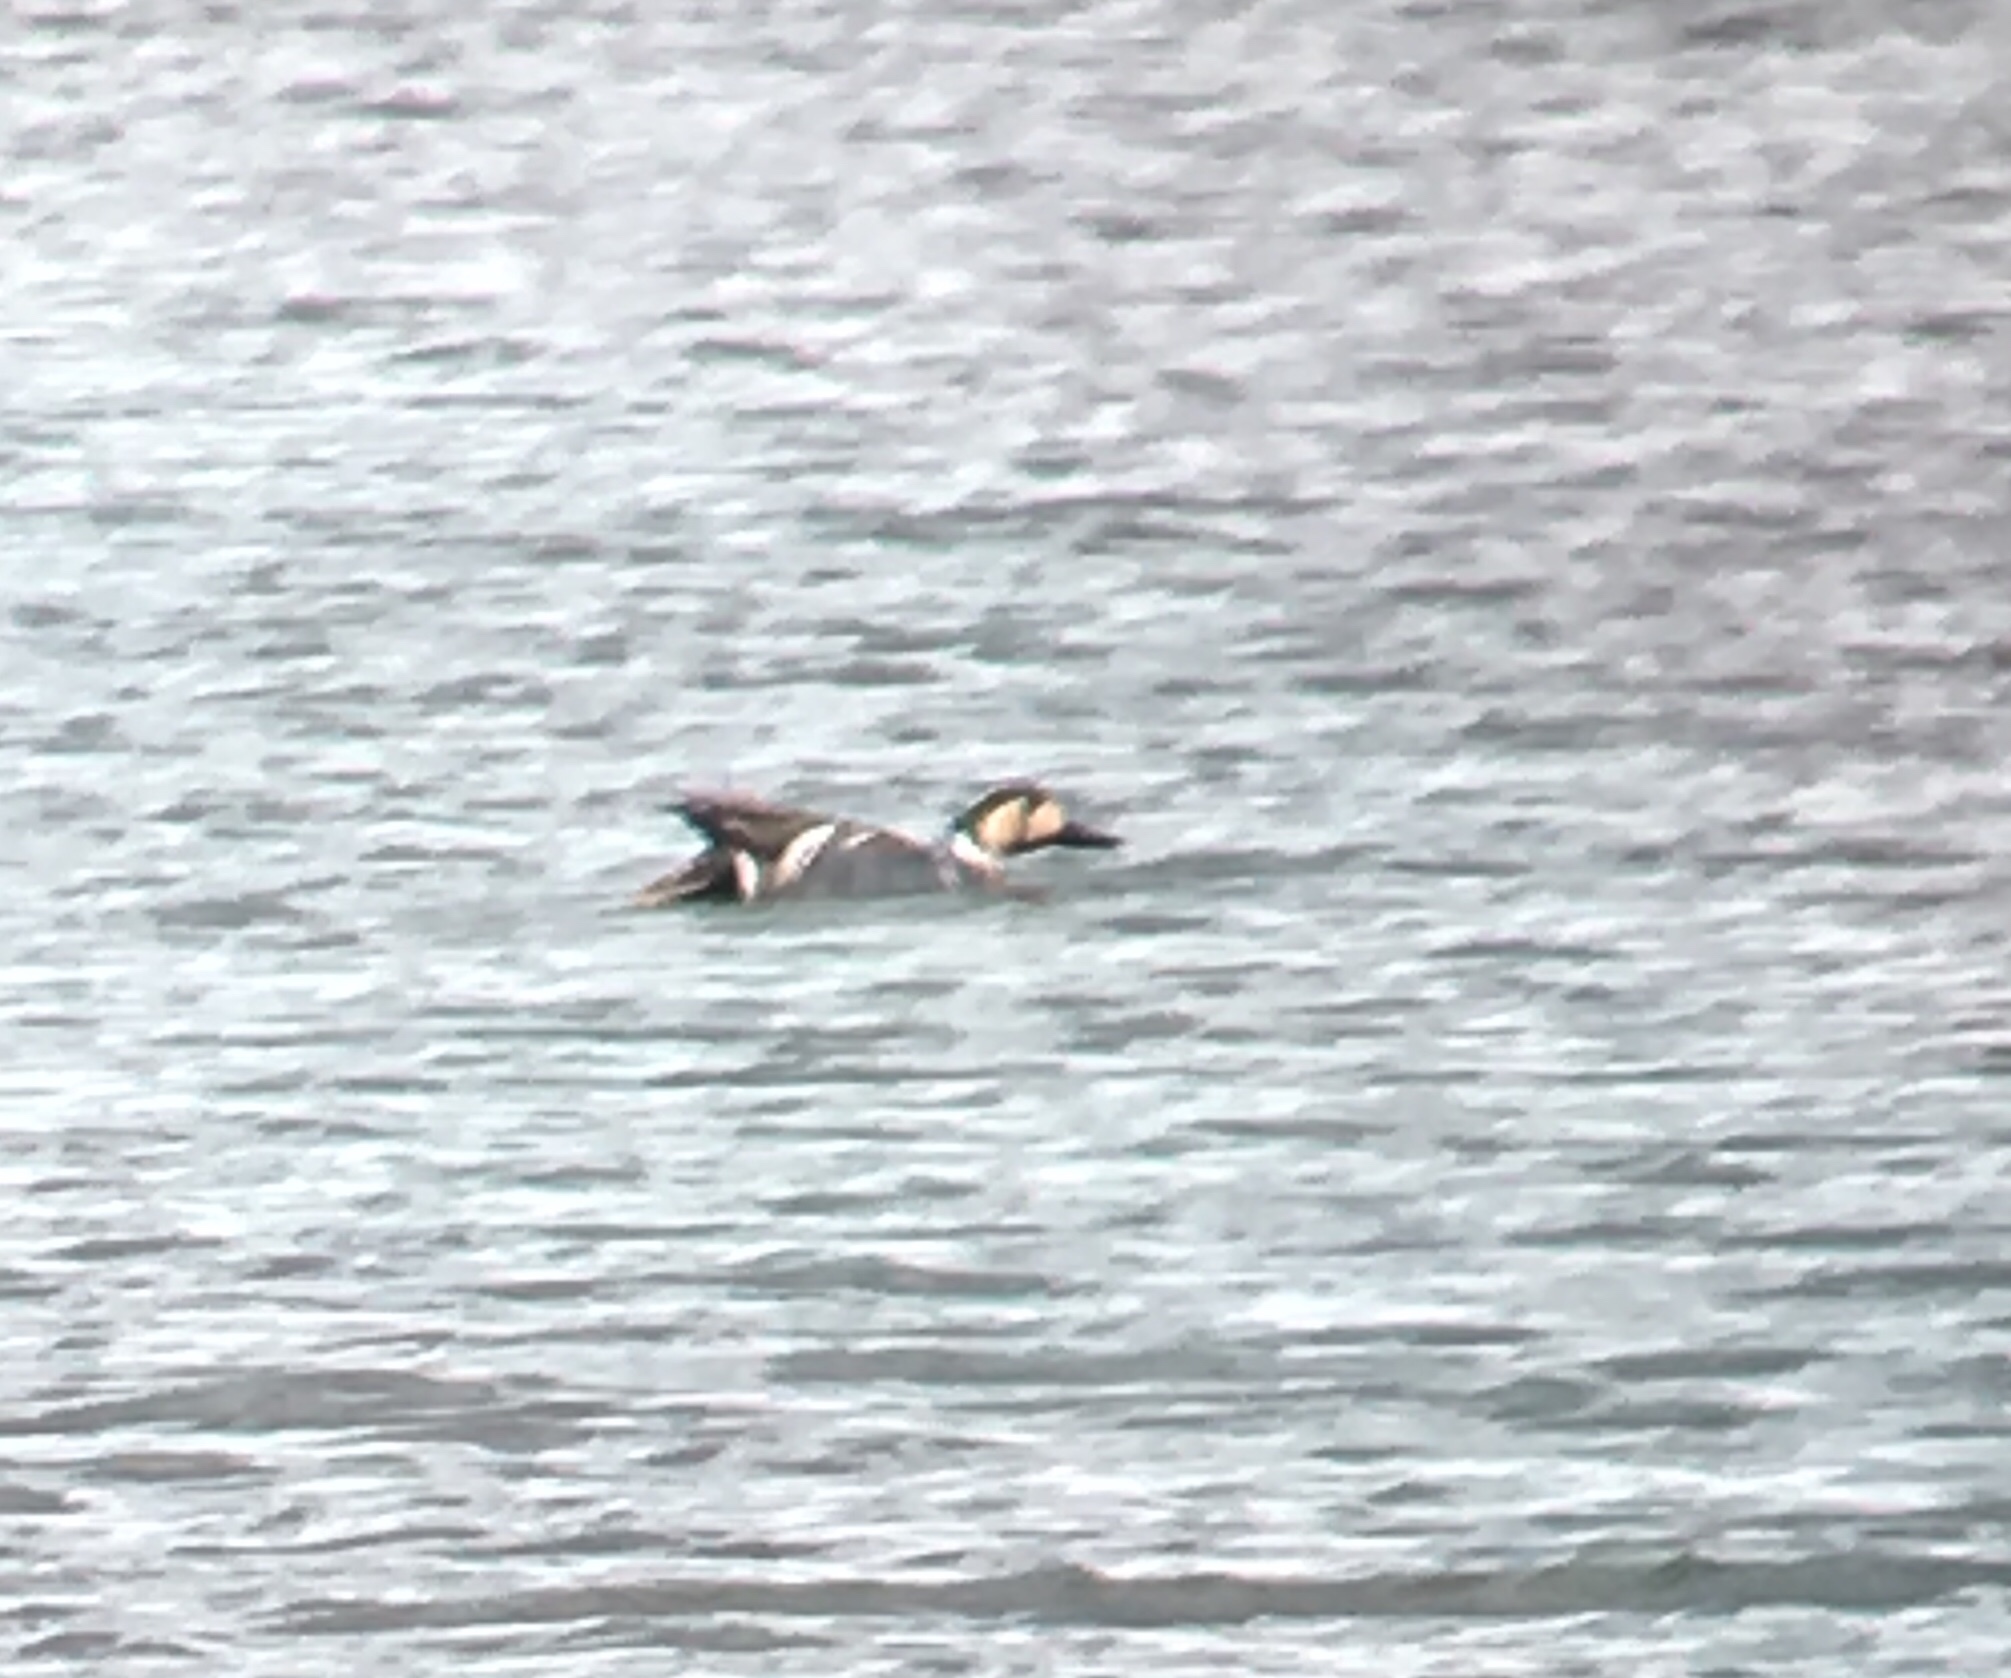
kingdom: Animalia
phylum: Chordata
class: Aves
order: Anseriformes
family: Anatidae
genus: Sibirionetta
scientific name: Sibirionetta formosa
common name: Baikal teal
